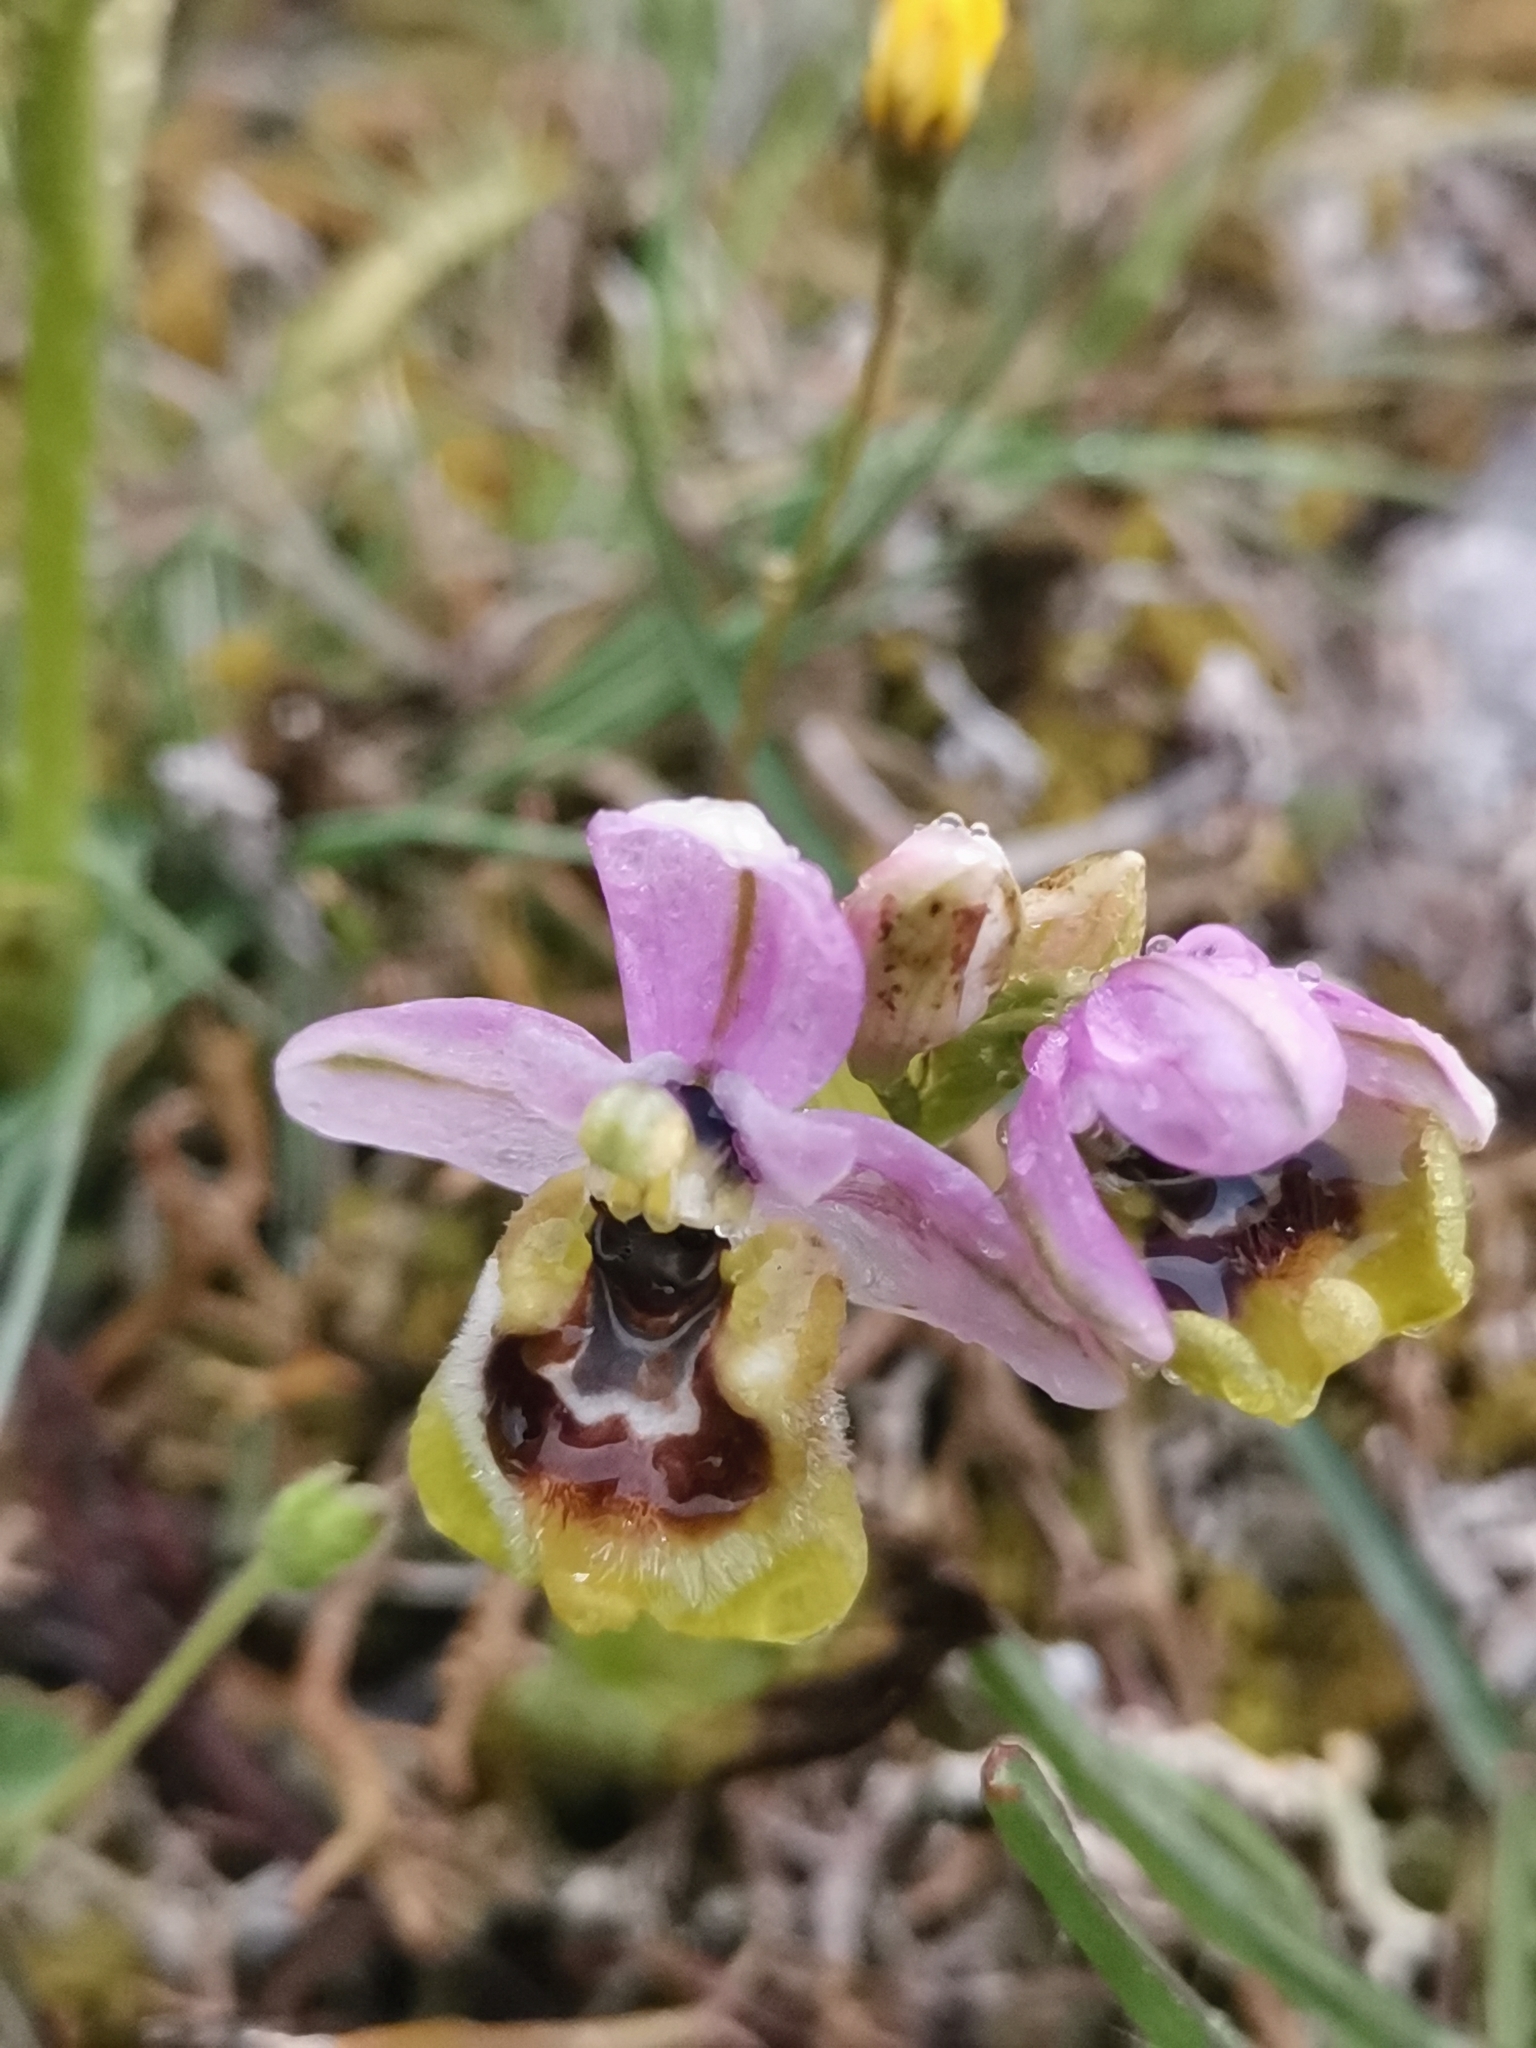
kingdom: Plantae
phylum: Tracheophyta
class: Liliopsida
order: Asparagales
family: Orchidaceae
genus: Ophrys
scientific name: Ophrys tenthredinifera
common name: Sawfly orchid
